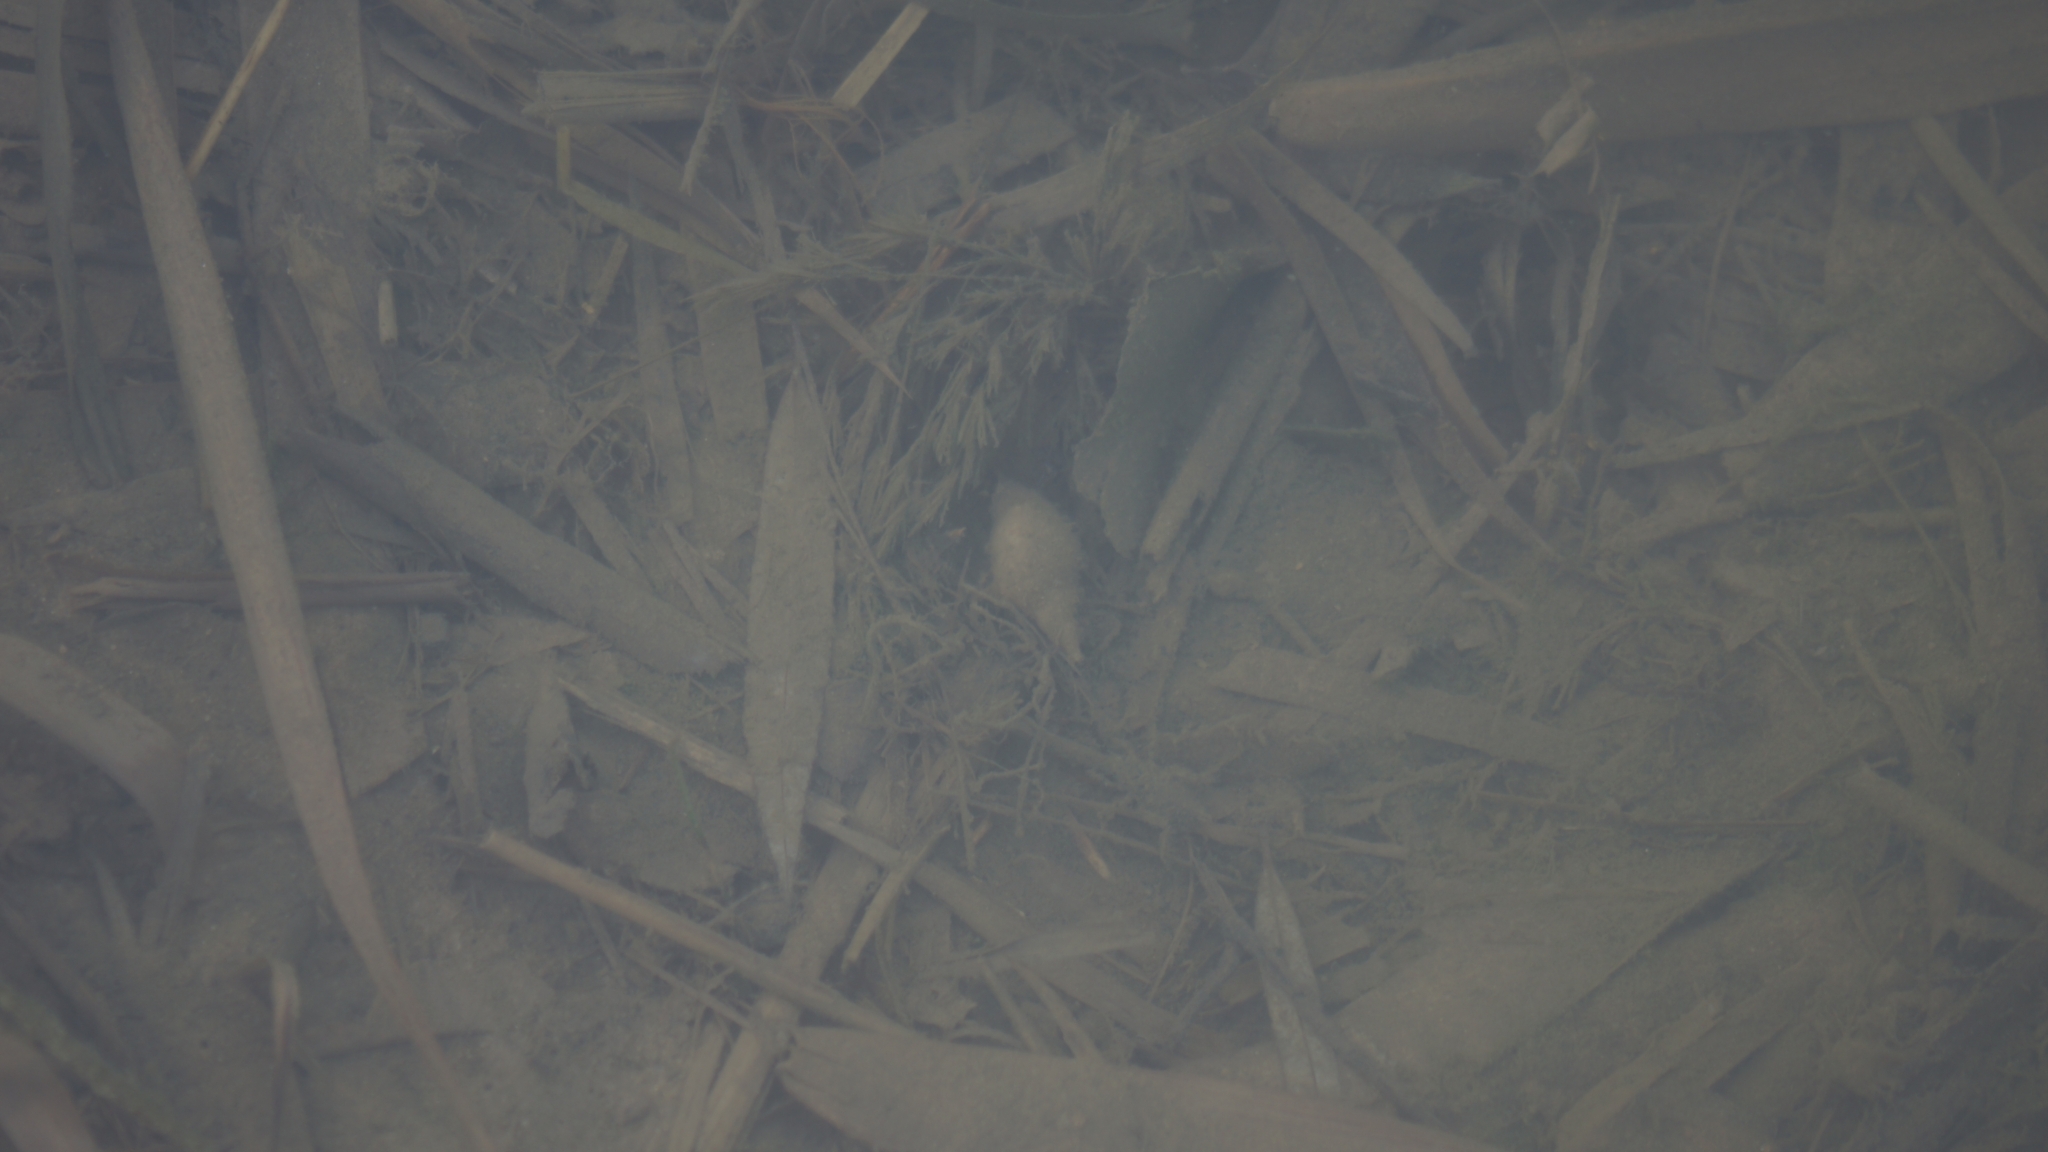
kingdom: Animalia
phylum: Mollusca
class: Gastropoda
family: Lymnaeidae
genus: Lymnaea
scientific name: Lymnaea stagnalis
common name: Great pond snail
